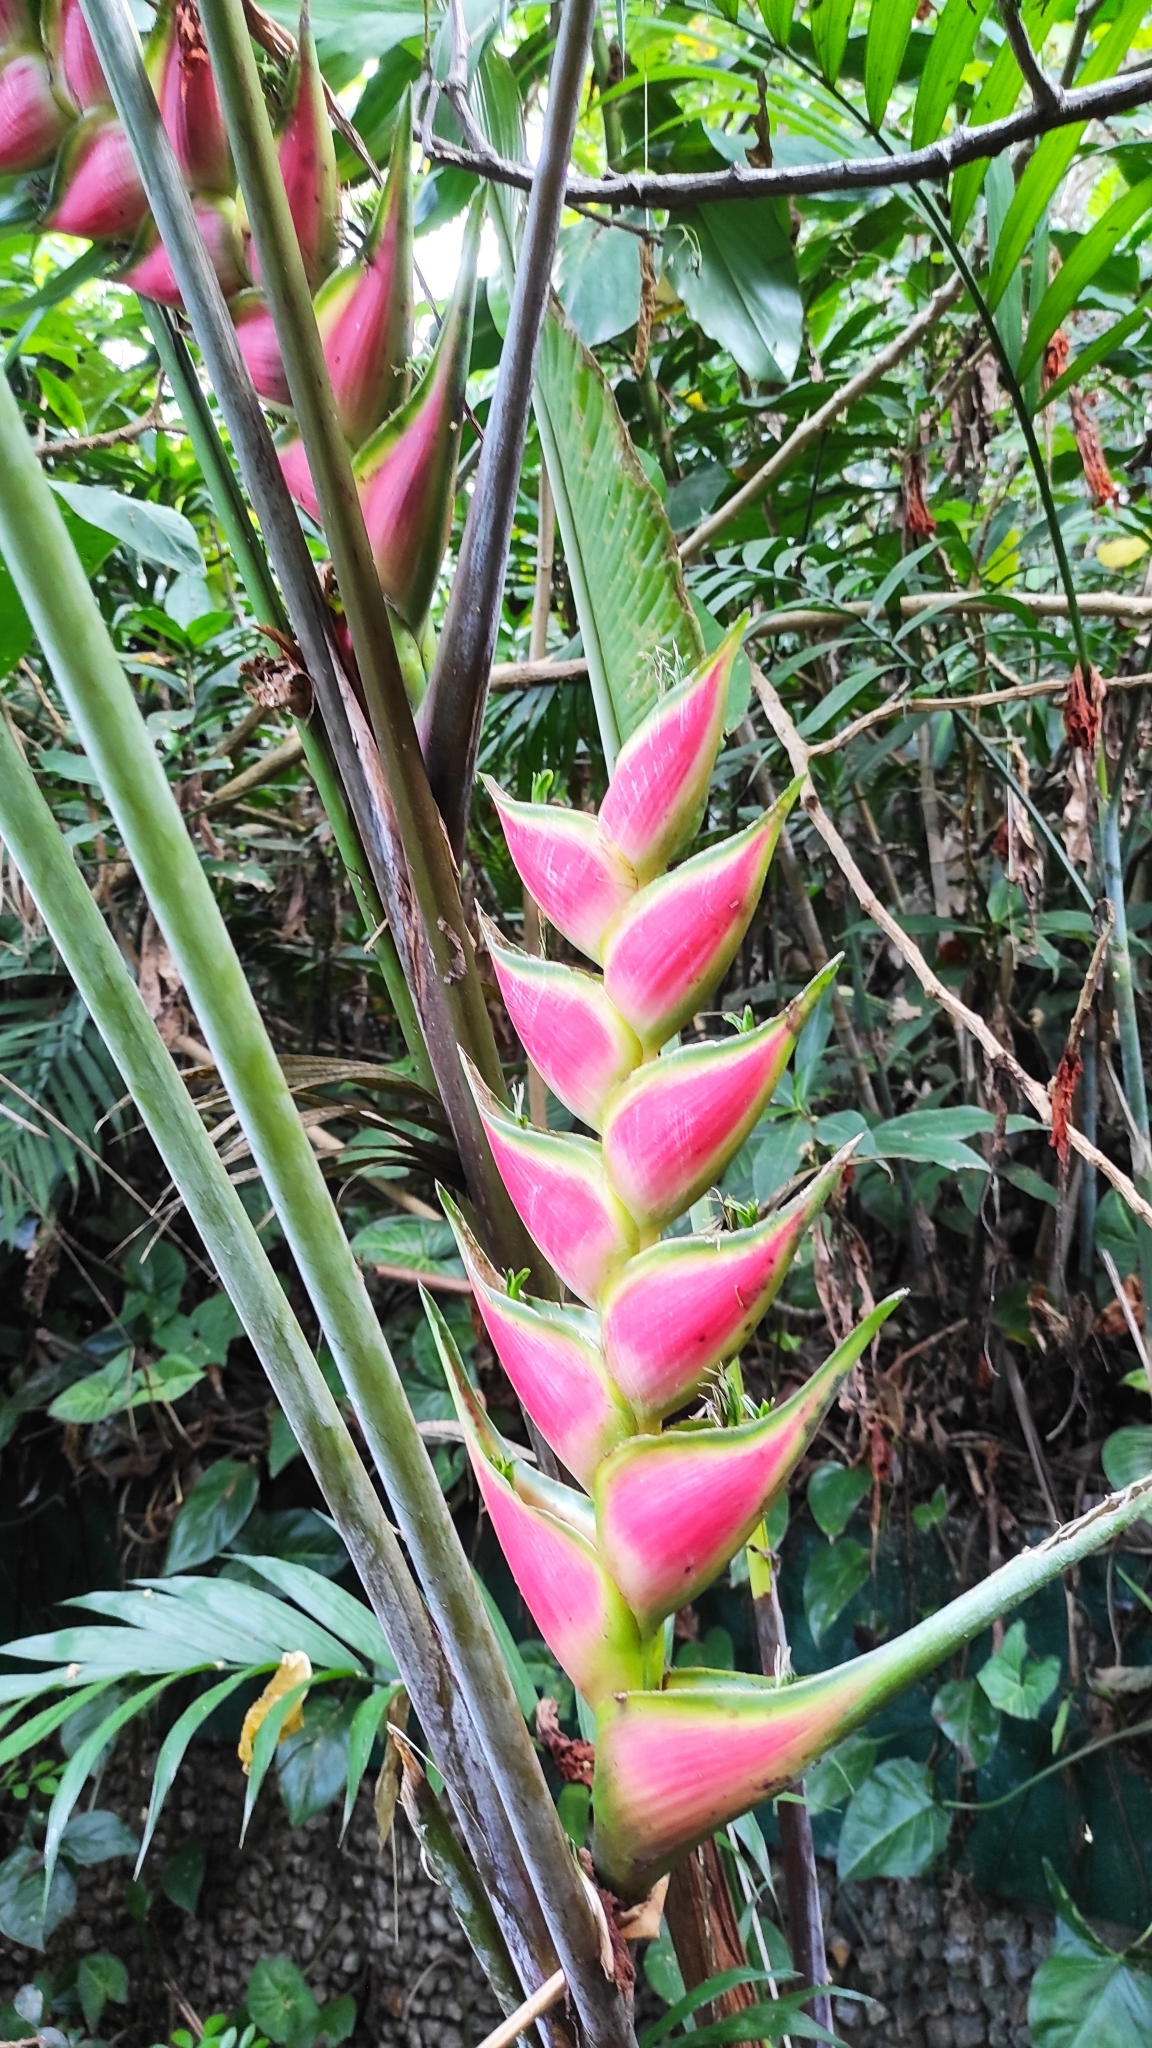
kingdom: Plantae
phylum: Tracheophyta
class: Liliopsida
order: Zingiberales
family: Heliconiaceae
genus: Heliconia
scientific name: Heliconia wagneriana
